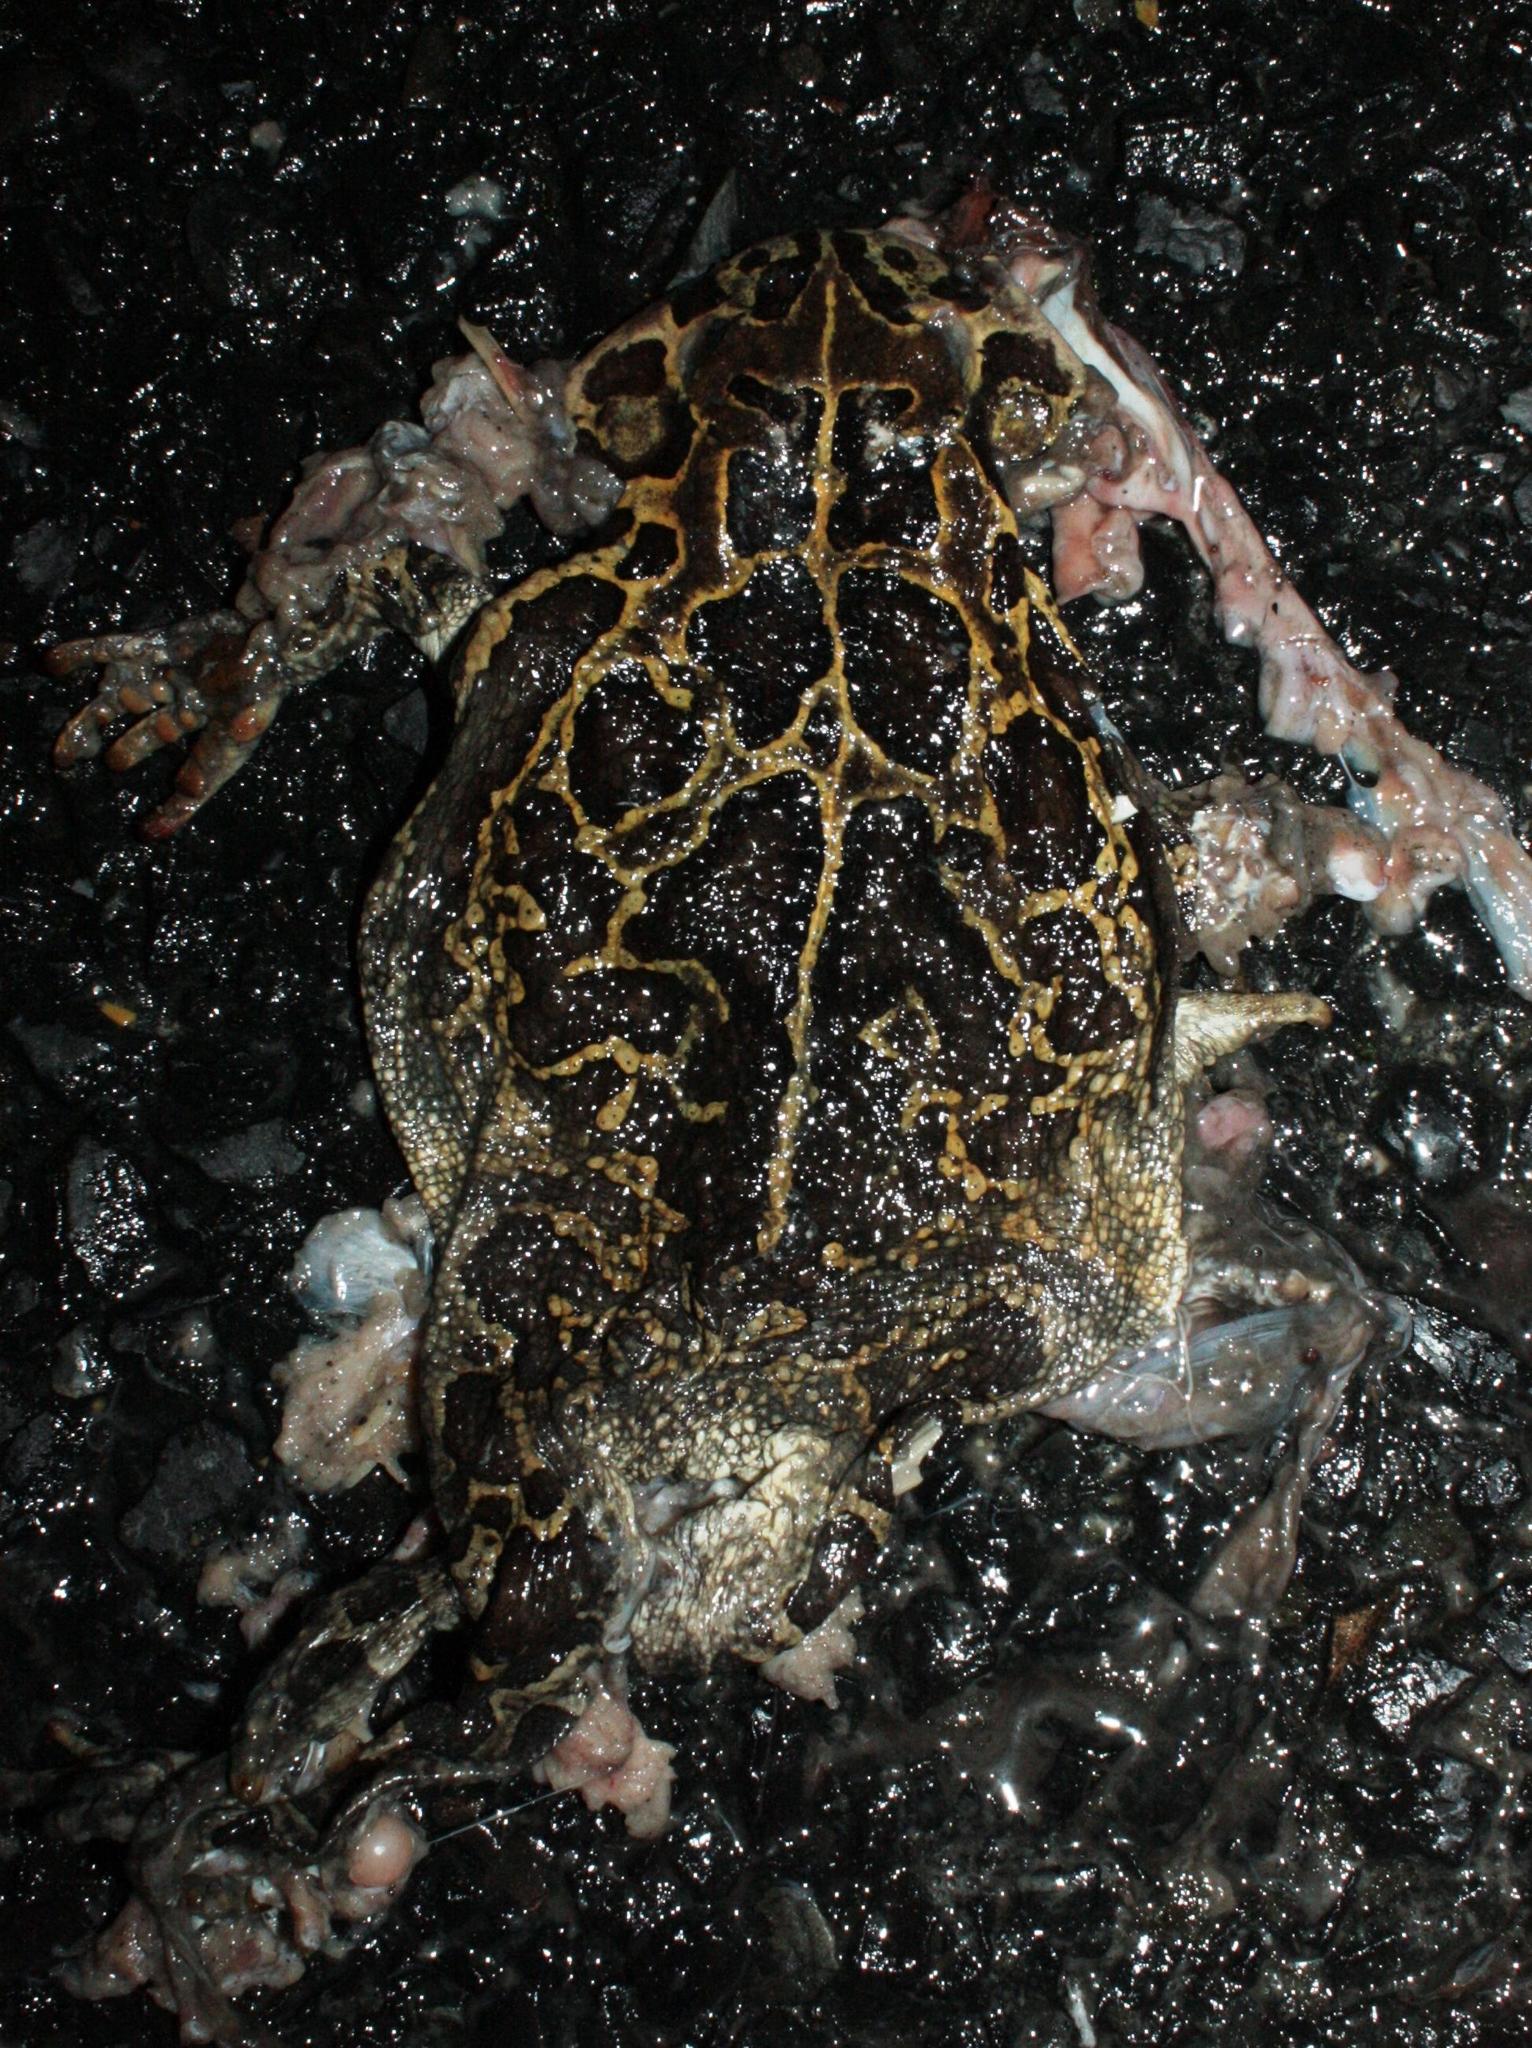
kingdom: Animalia
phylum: Chordata
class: Amphibia
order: Anura
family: Bufonidae
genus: Sclerophrys
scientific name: Sclerophrys pantherina
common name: Panther toad
